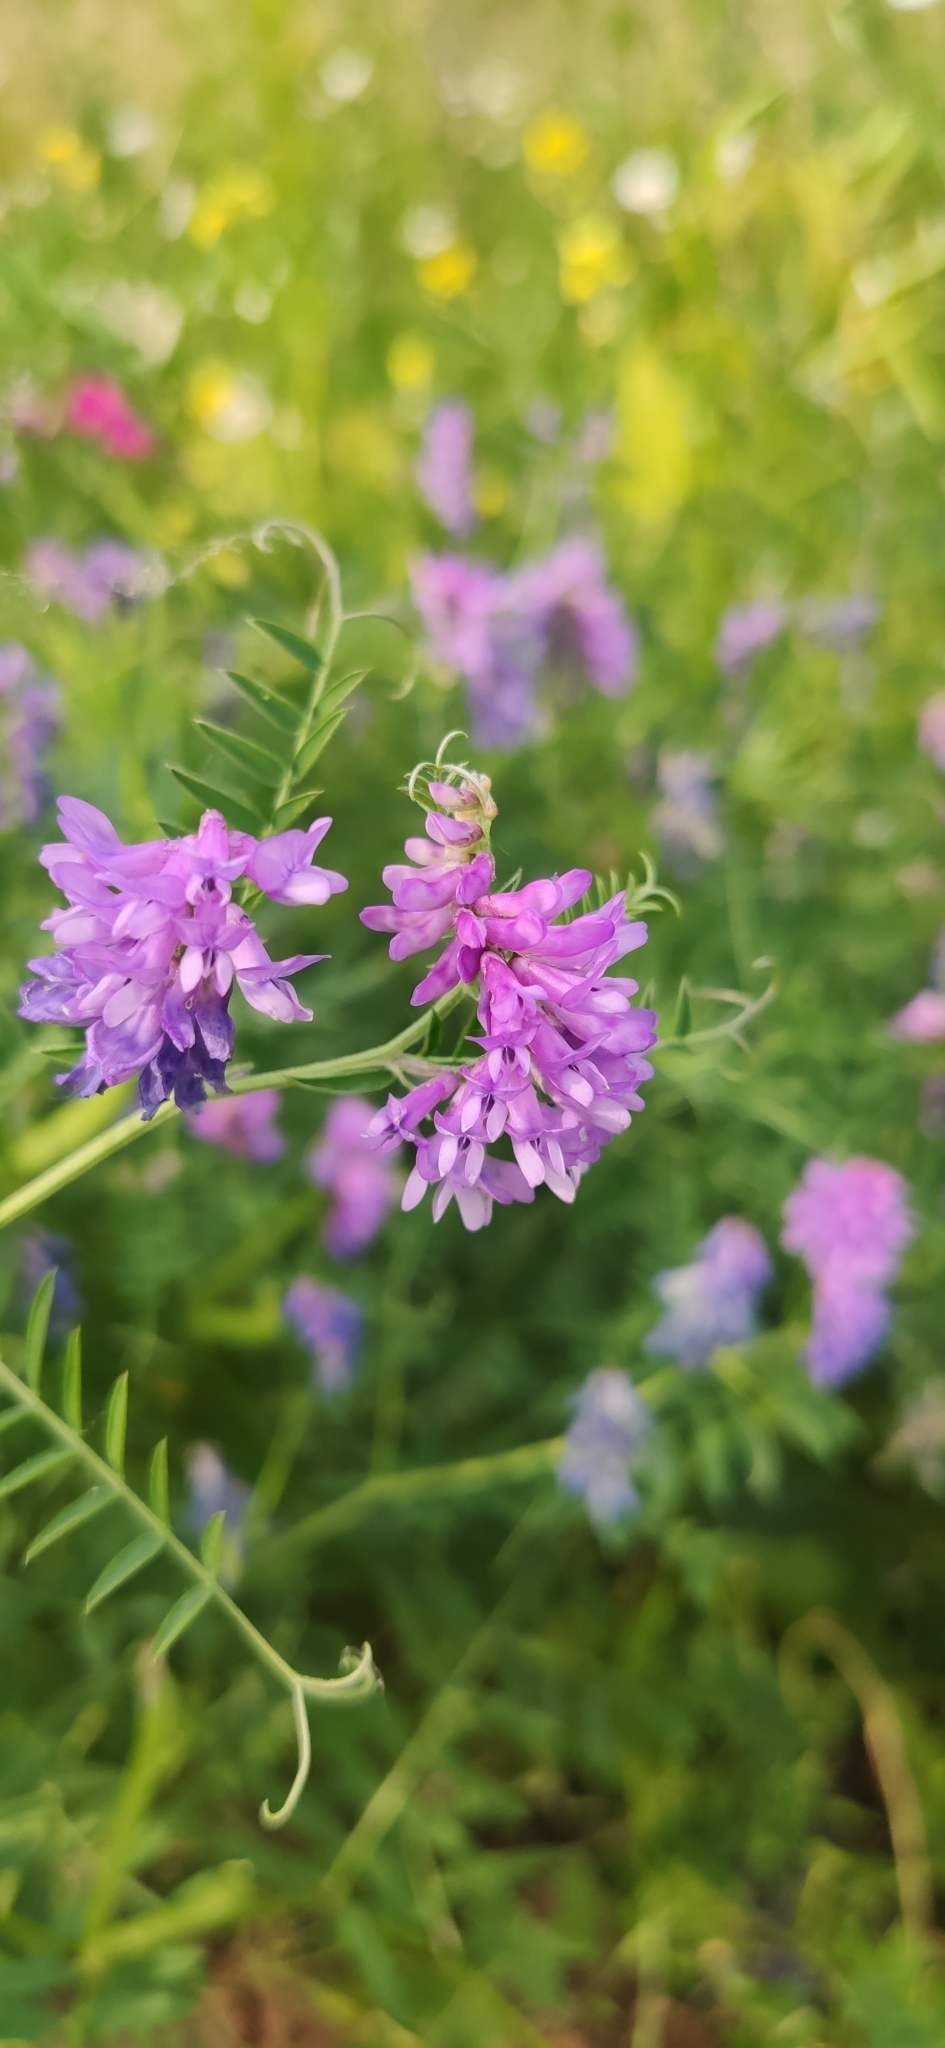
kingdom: Plantae
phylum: Tracheophyta
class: Magnoliopsida
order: Fabales
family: Fabaceae
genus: Vicia
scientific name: Vicia cracca
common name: Bird vetch
